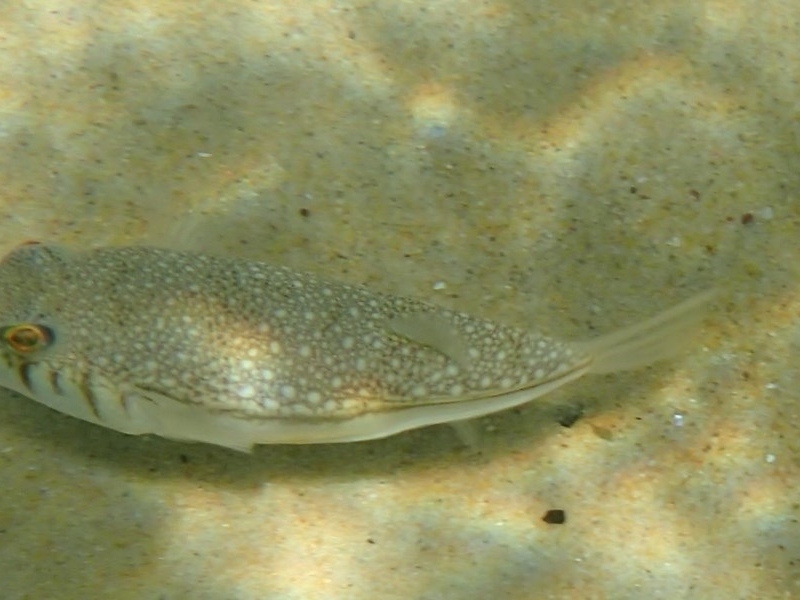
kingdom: Animalia
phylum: Chordata
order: Tetraodontiformes
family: Tetraodontidae
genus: Torquigener
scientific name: Torquigener pleurogramma
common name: Banded toadfish
